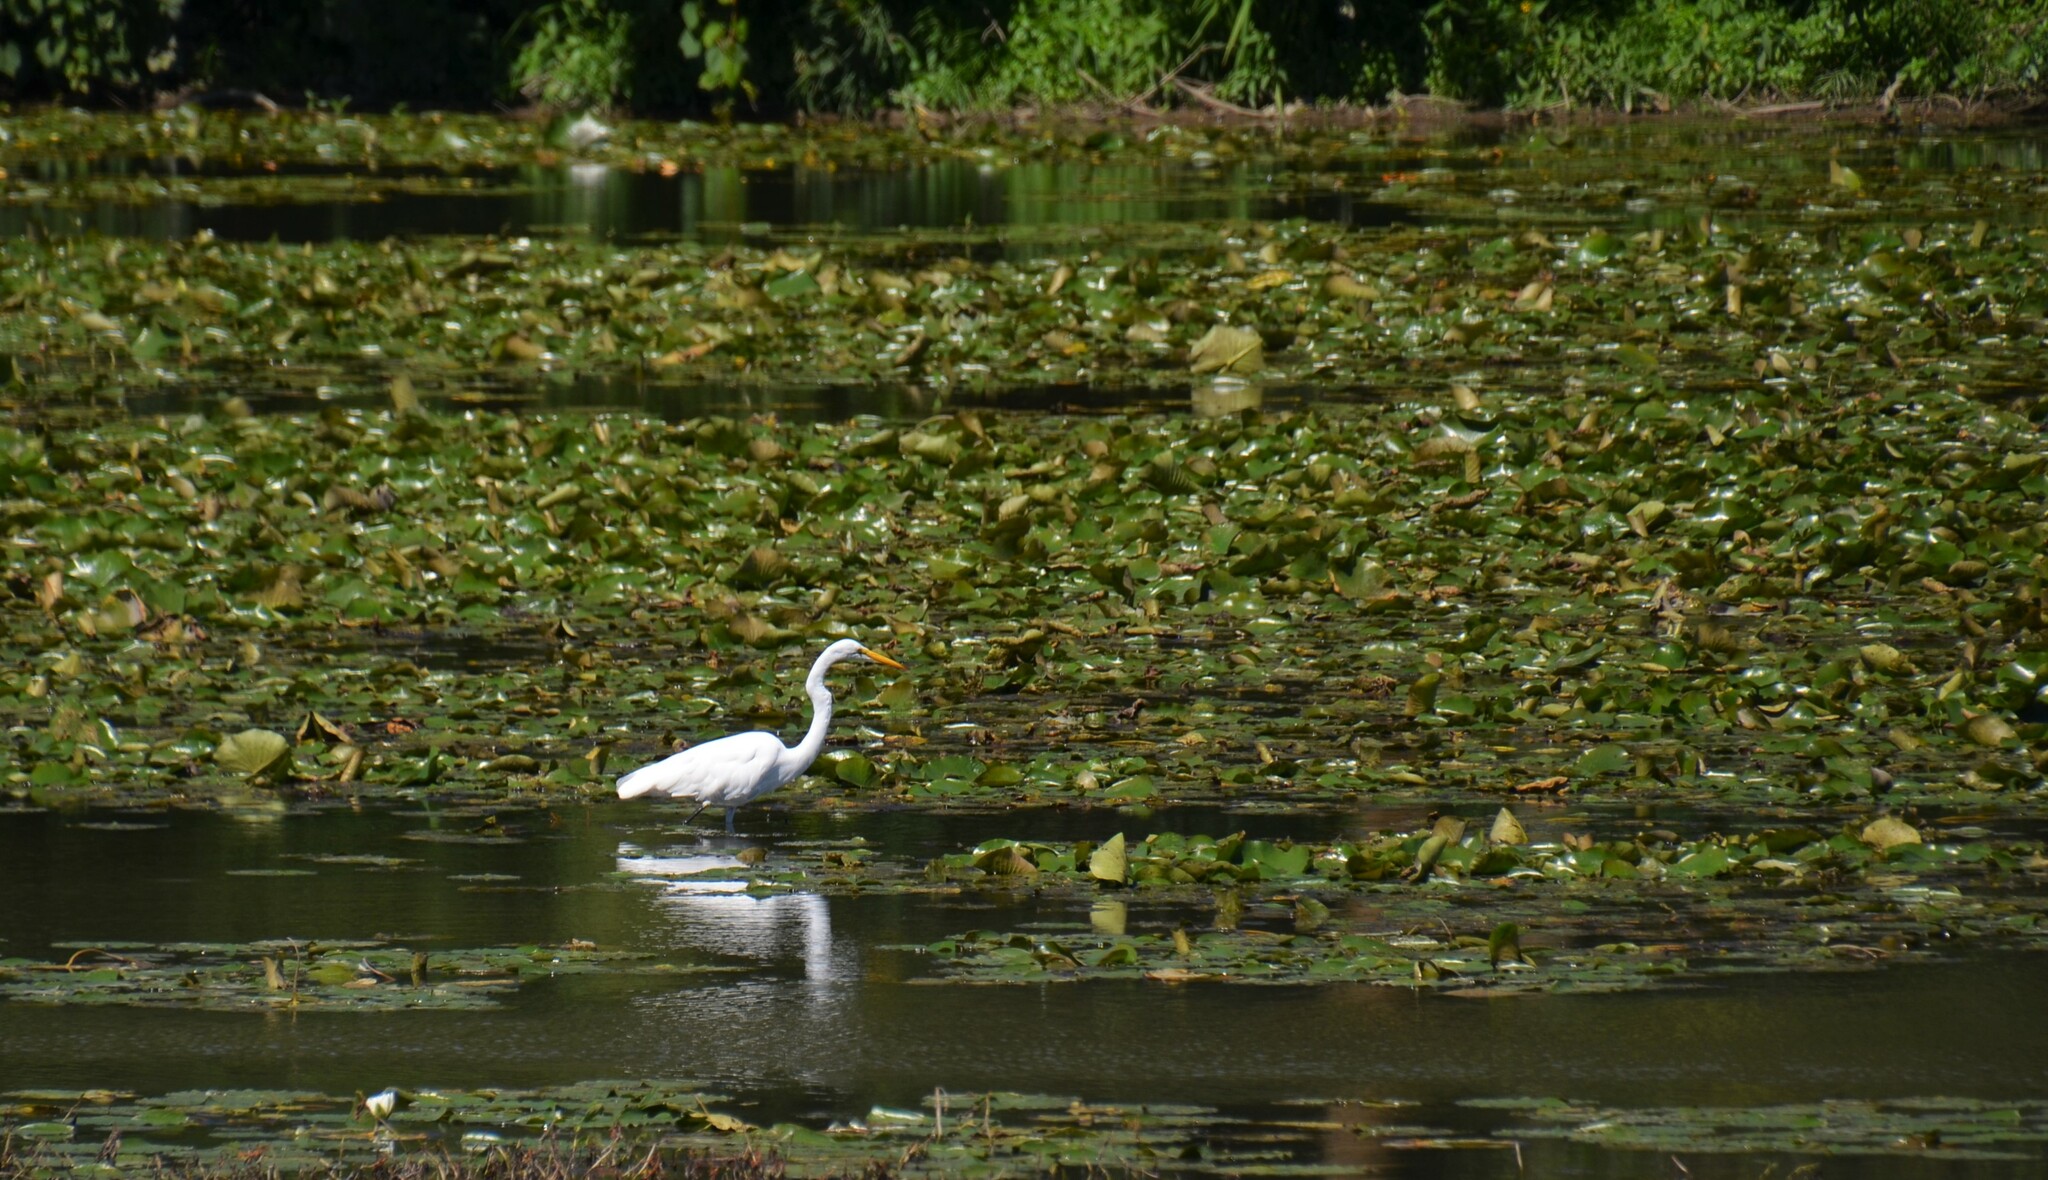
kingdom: Animalia
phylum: Chordata
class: Aves
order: Pelecaniformes
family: Ardeidae
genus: Ardea
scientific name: Ardea alba
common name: Great egret
